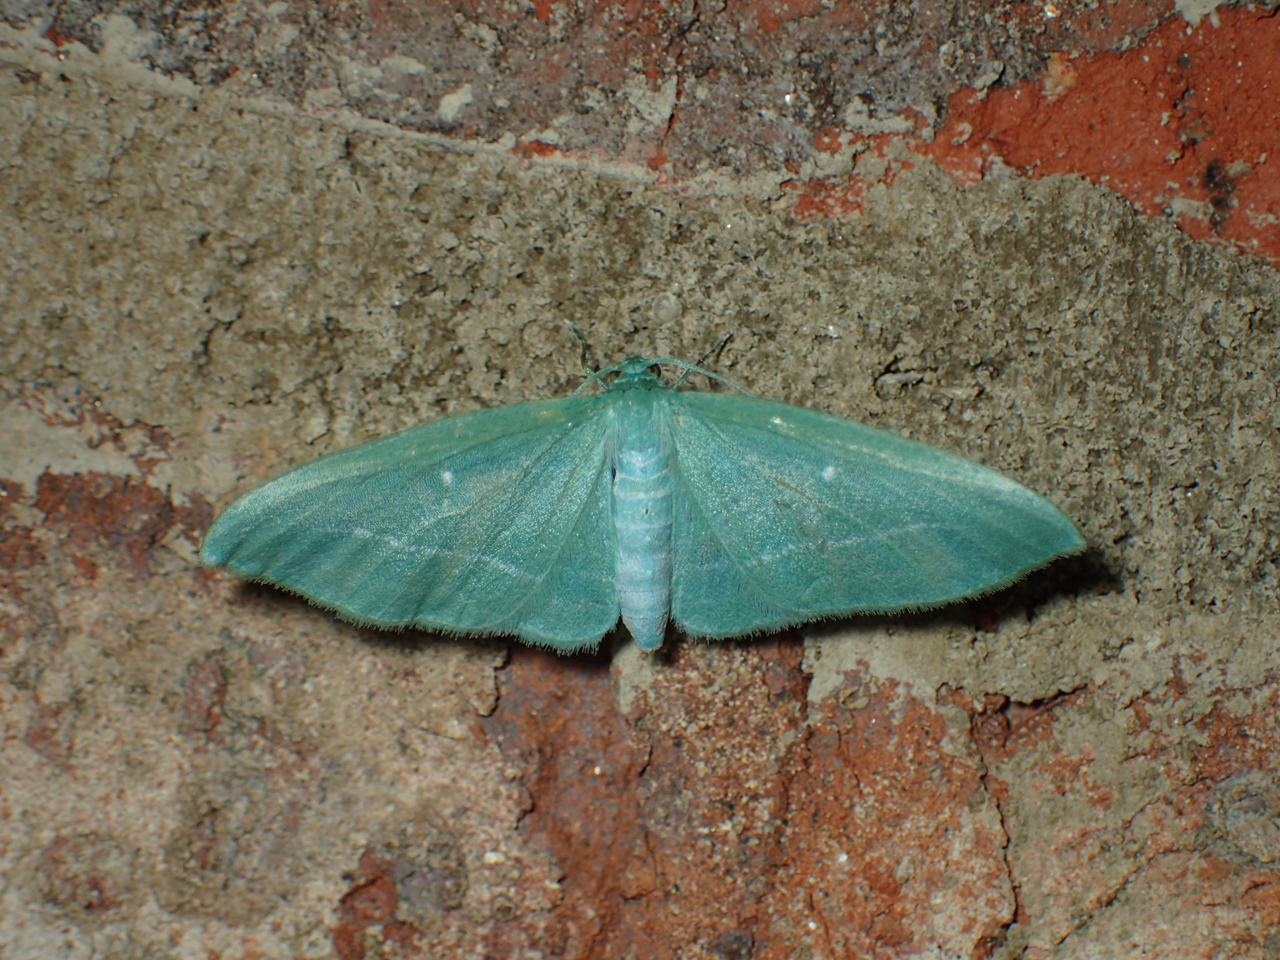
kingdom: Animalia
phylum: Arthropoda
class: Insecta
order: Lepidoptera
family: Geometridae
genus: Dyspteris
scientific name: Dyspteris abortivaria
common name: Bad-wing
